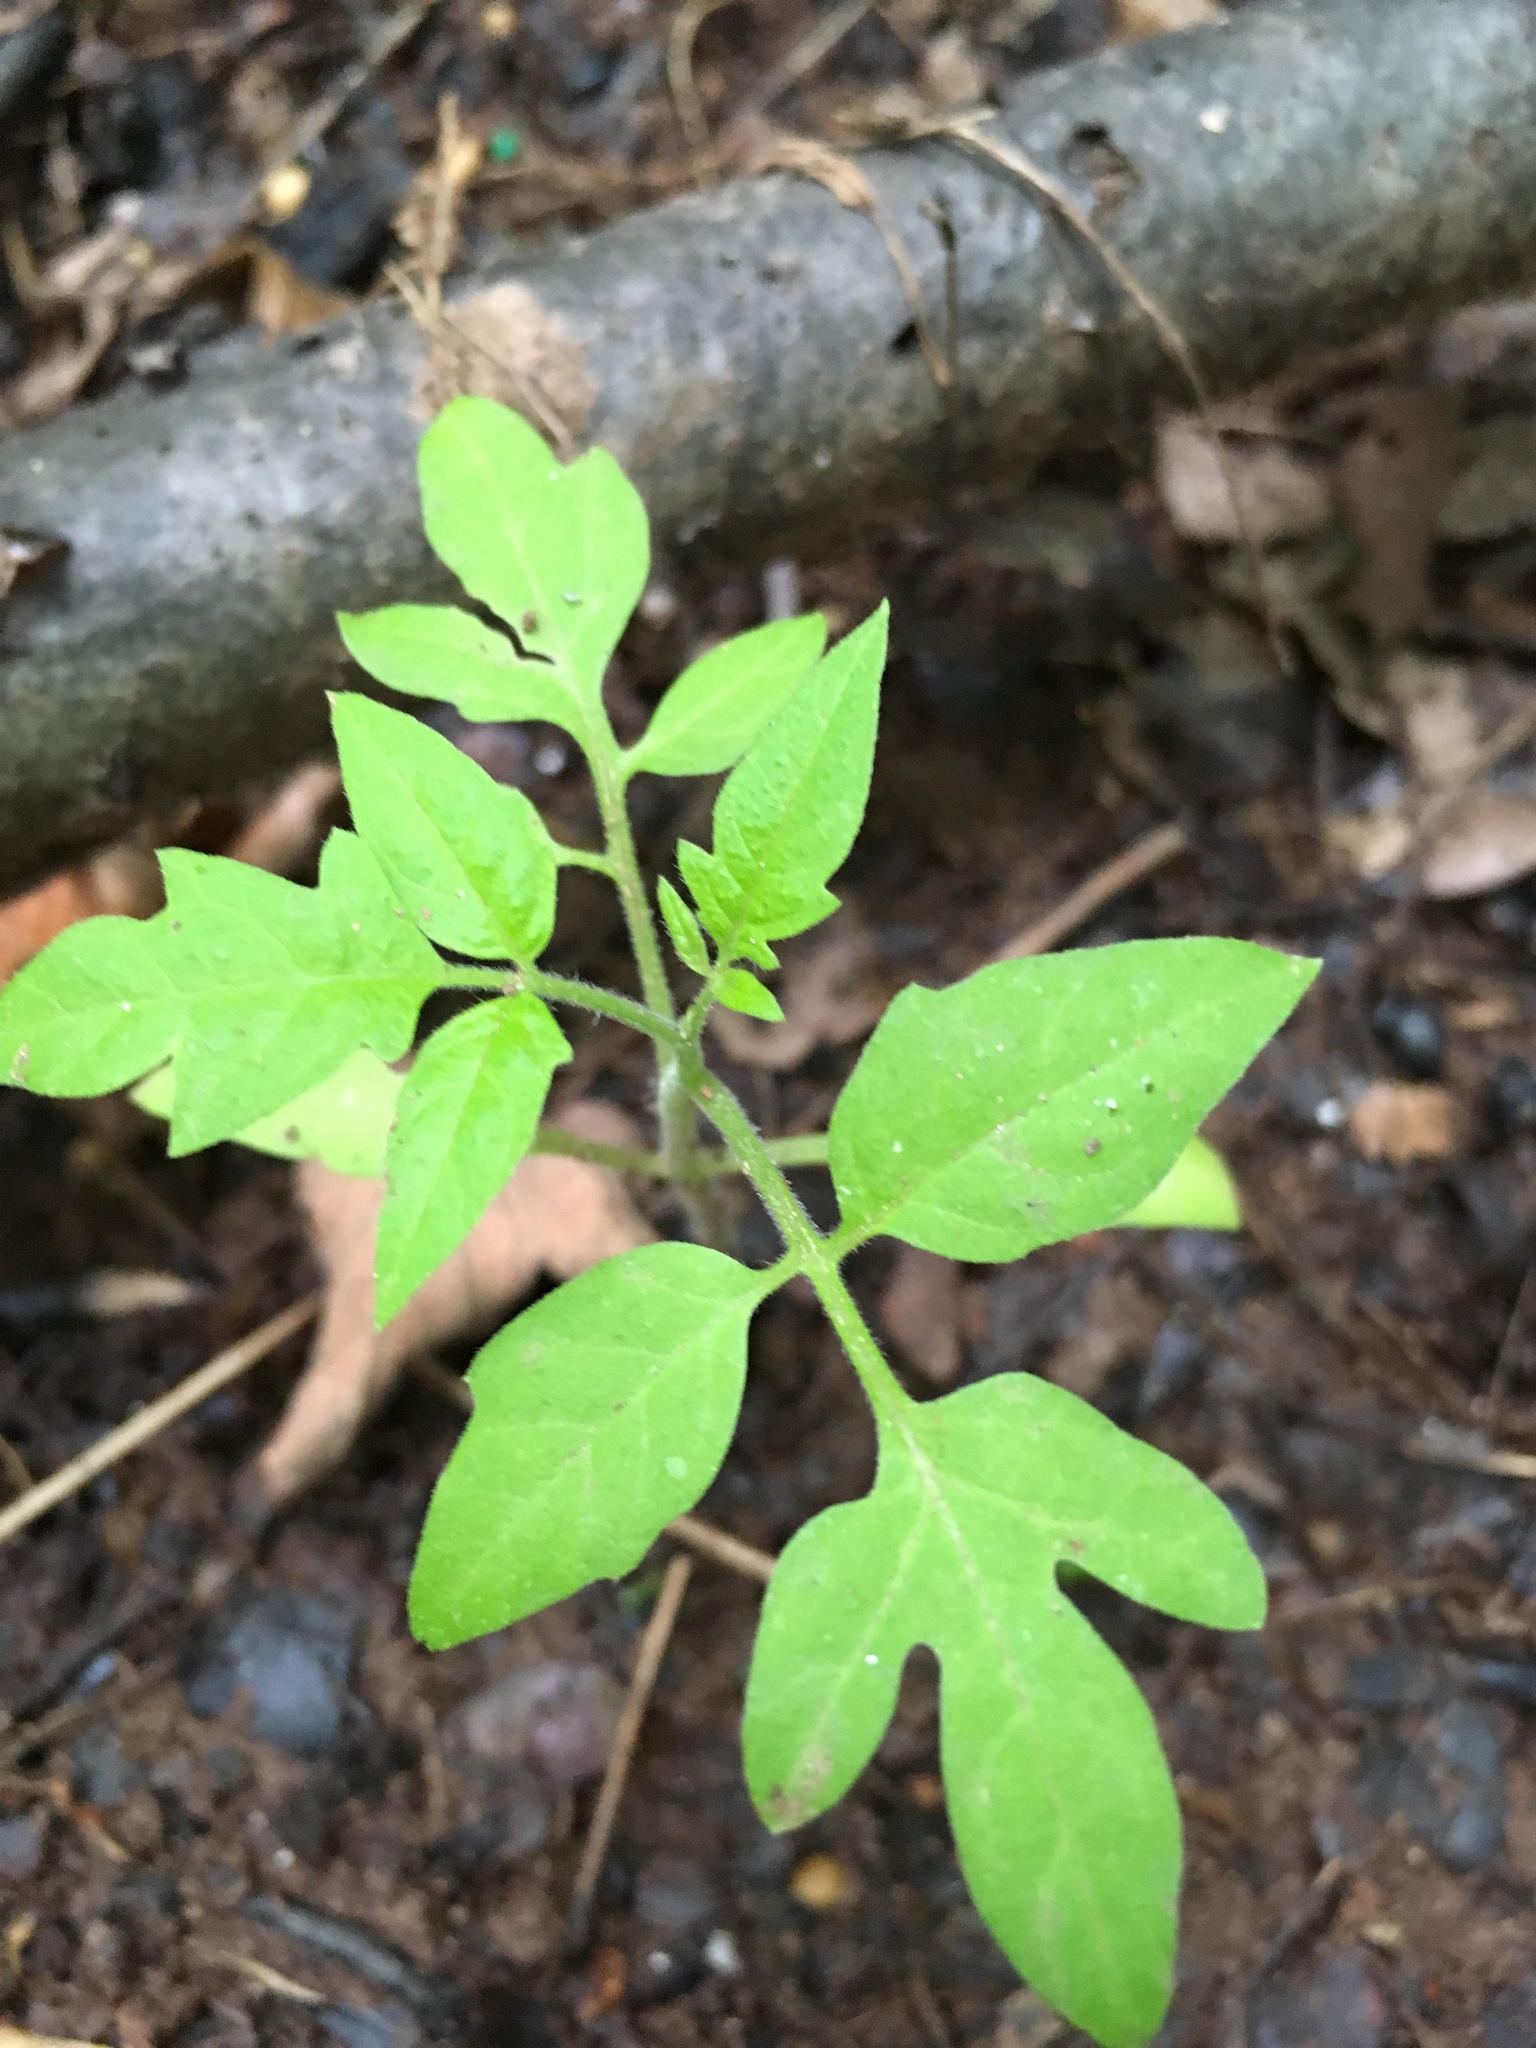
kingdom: Plantae
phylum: Tracheophyta
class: Magnoliopsida
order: Solanales
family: Solanaceae
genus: Solanum
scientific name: Solanum lycopersicum
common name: Garden tomato
